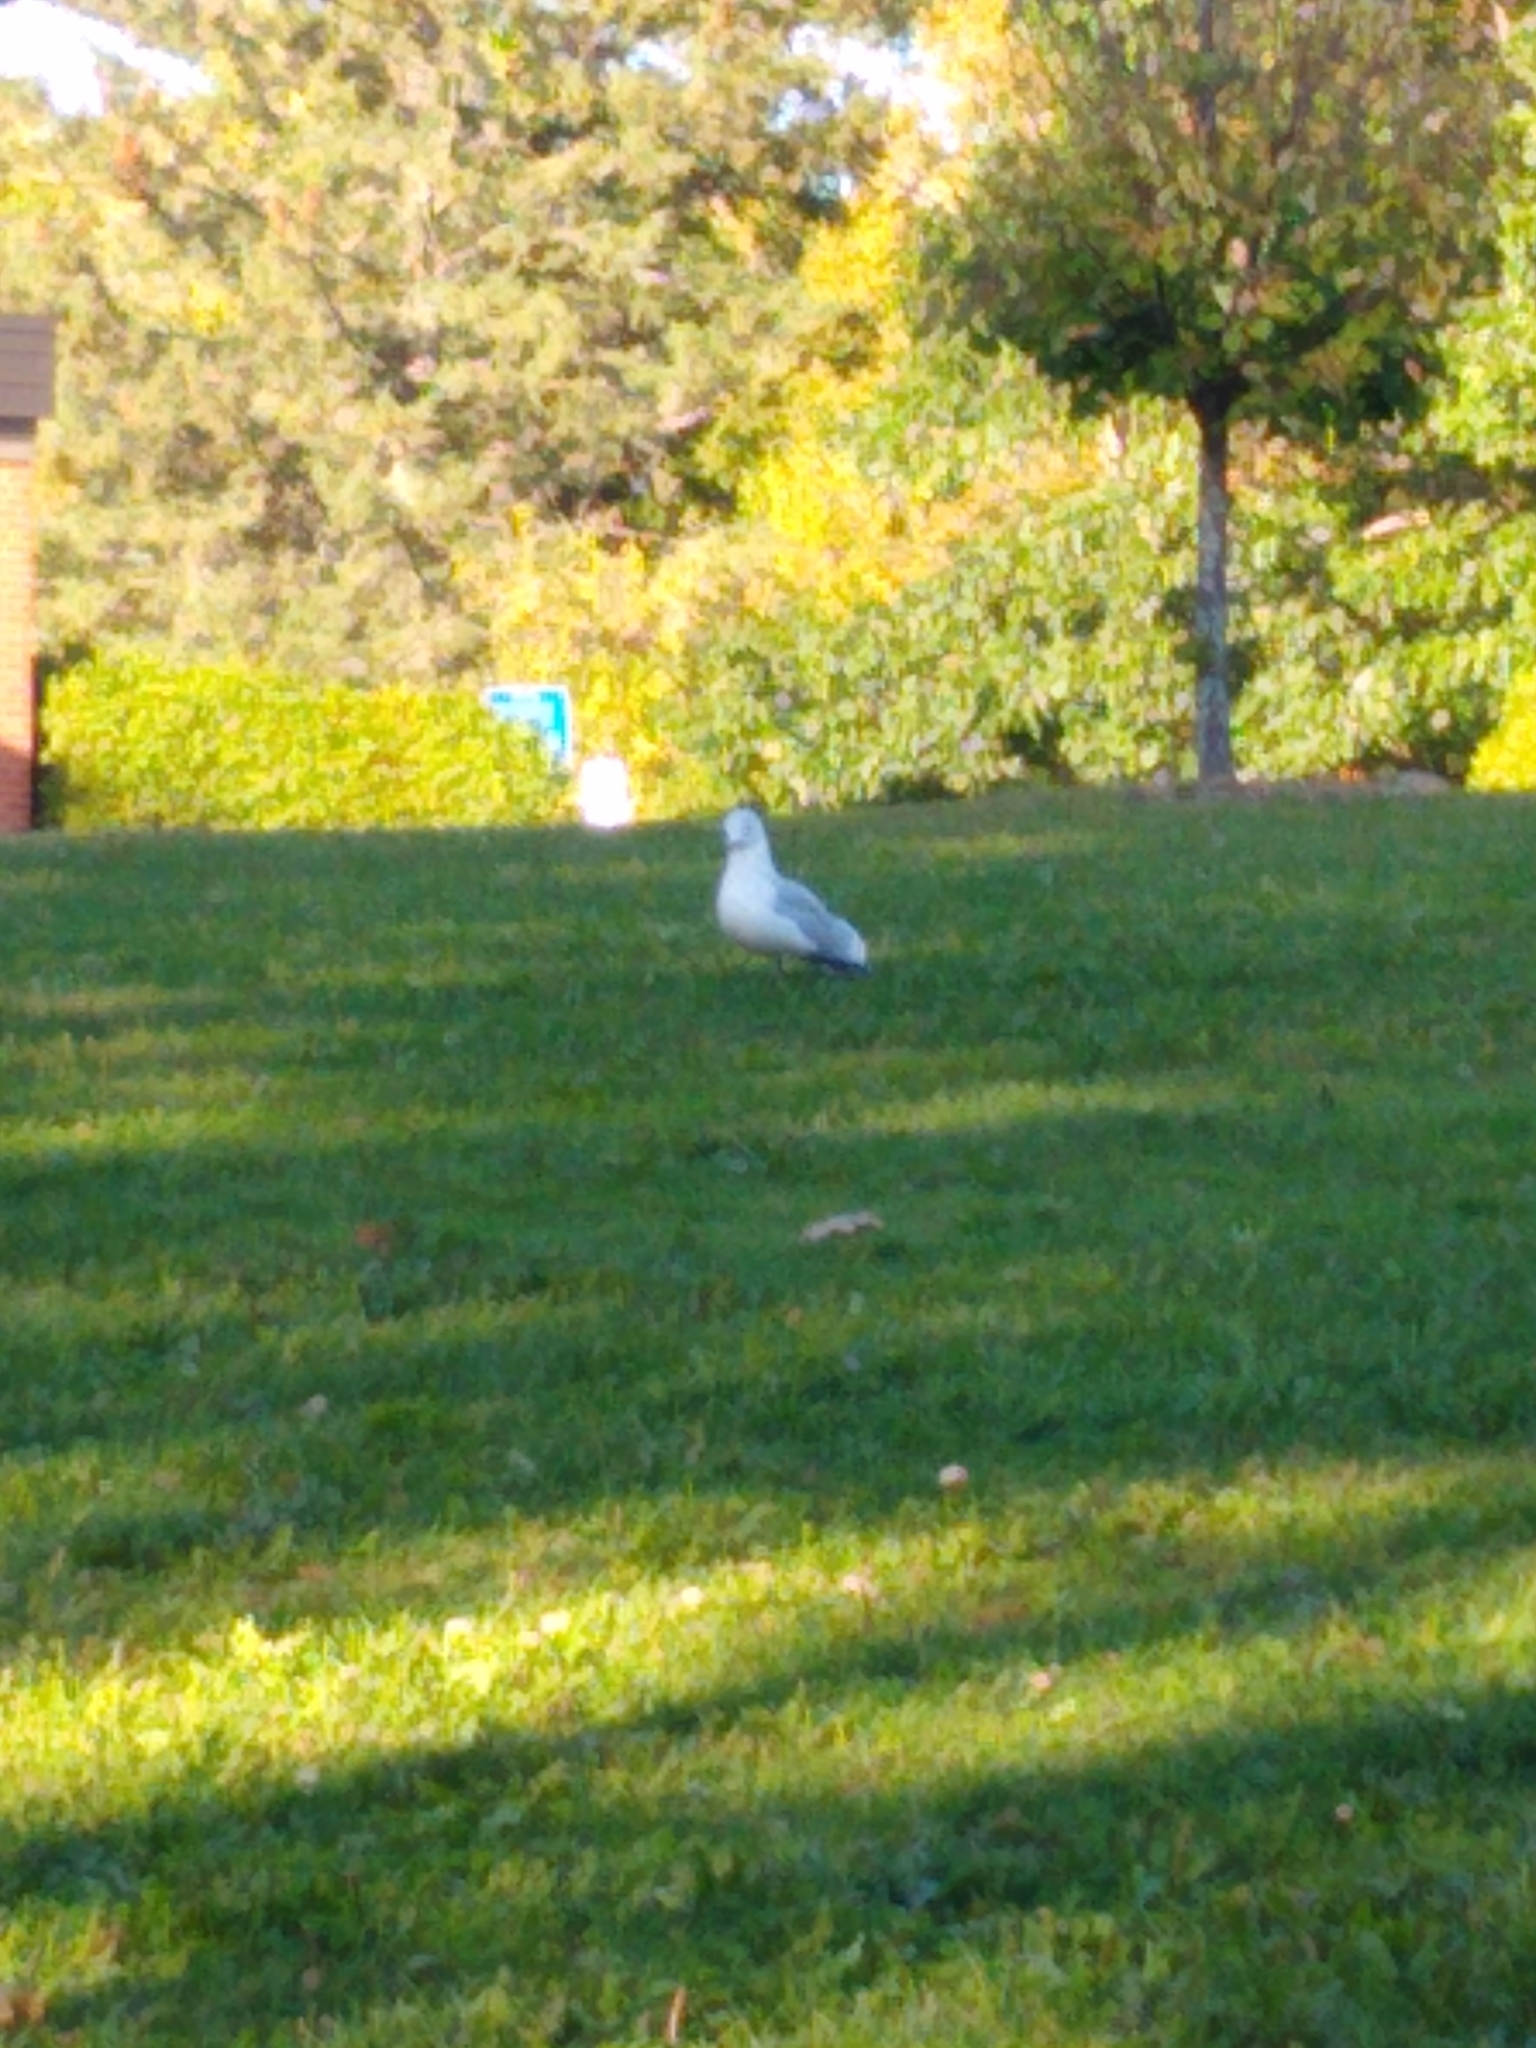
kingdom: Animalia
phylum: Chordata
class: Aves
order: Charadriiformes
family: Laridae
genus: Larus
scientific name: Larus delawarensis
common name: Ring-billed gull
